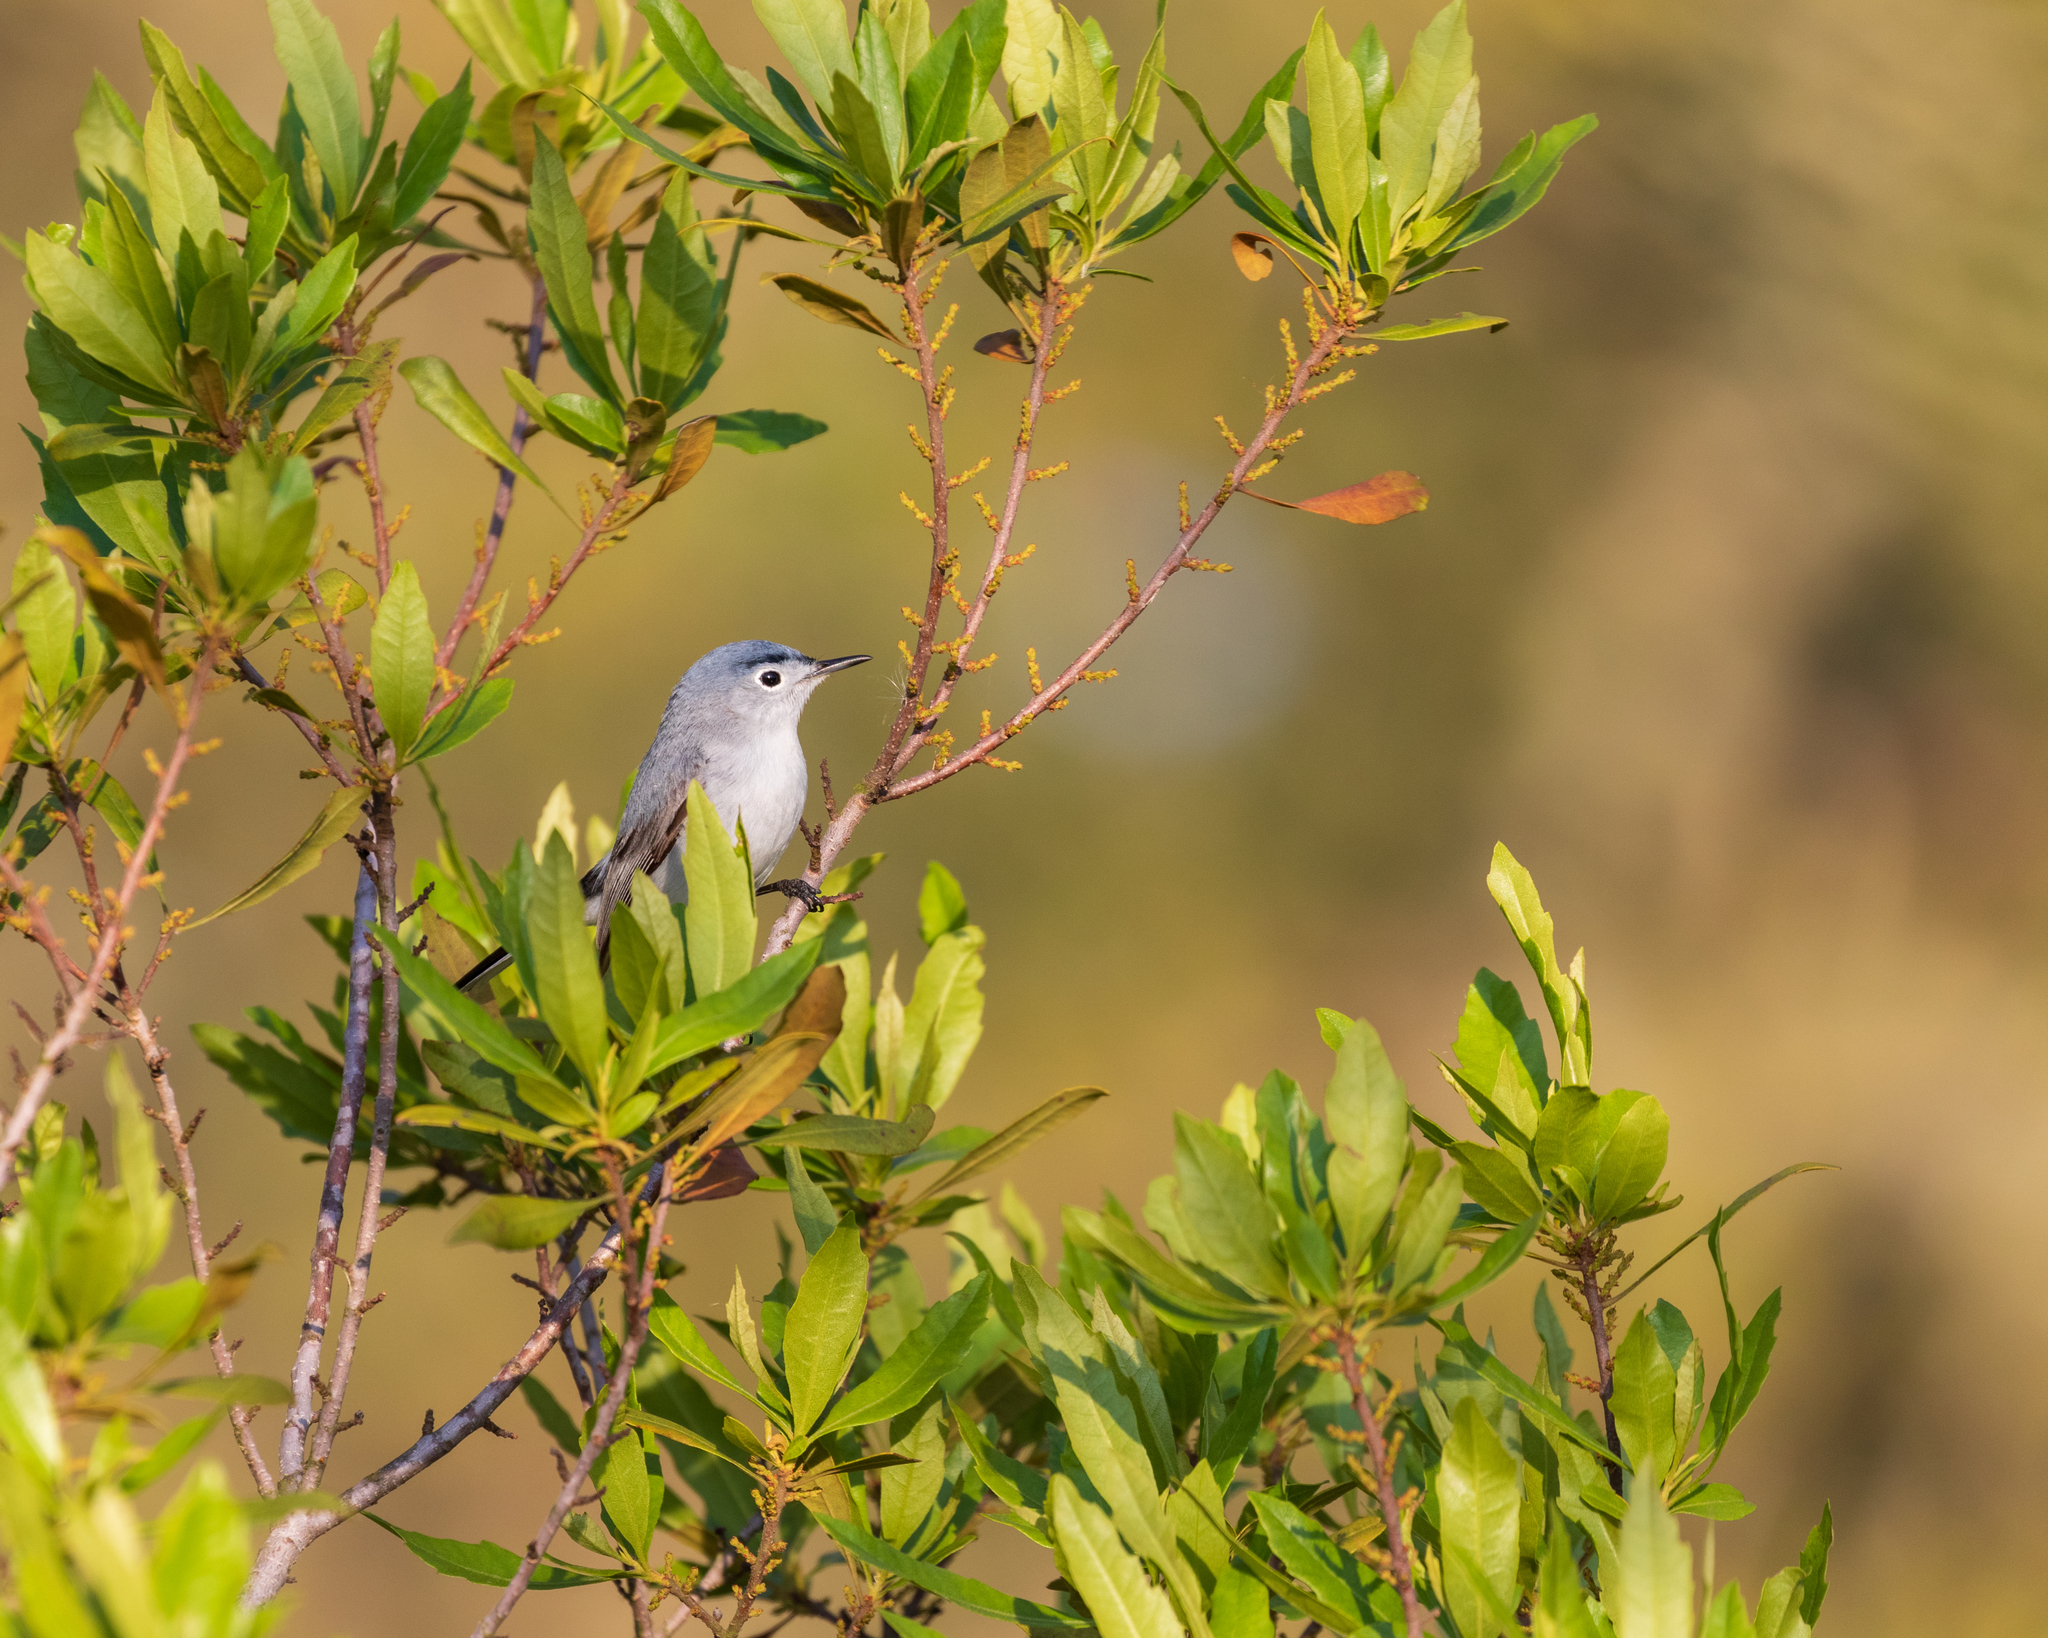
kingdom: Animalia
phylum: Chordata
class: Aves
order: Passeriformes
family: Polioptilidae
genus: Polioptila
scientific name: Polioptila caerulea
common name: Blue-gray gnatcatcher
